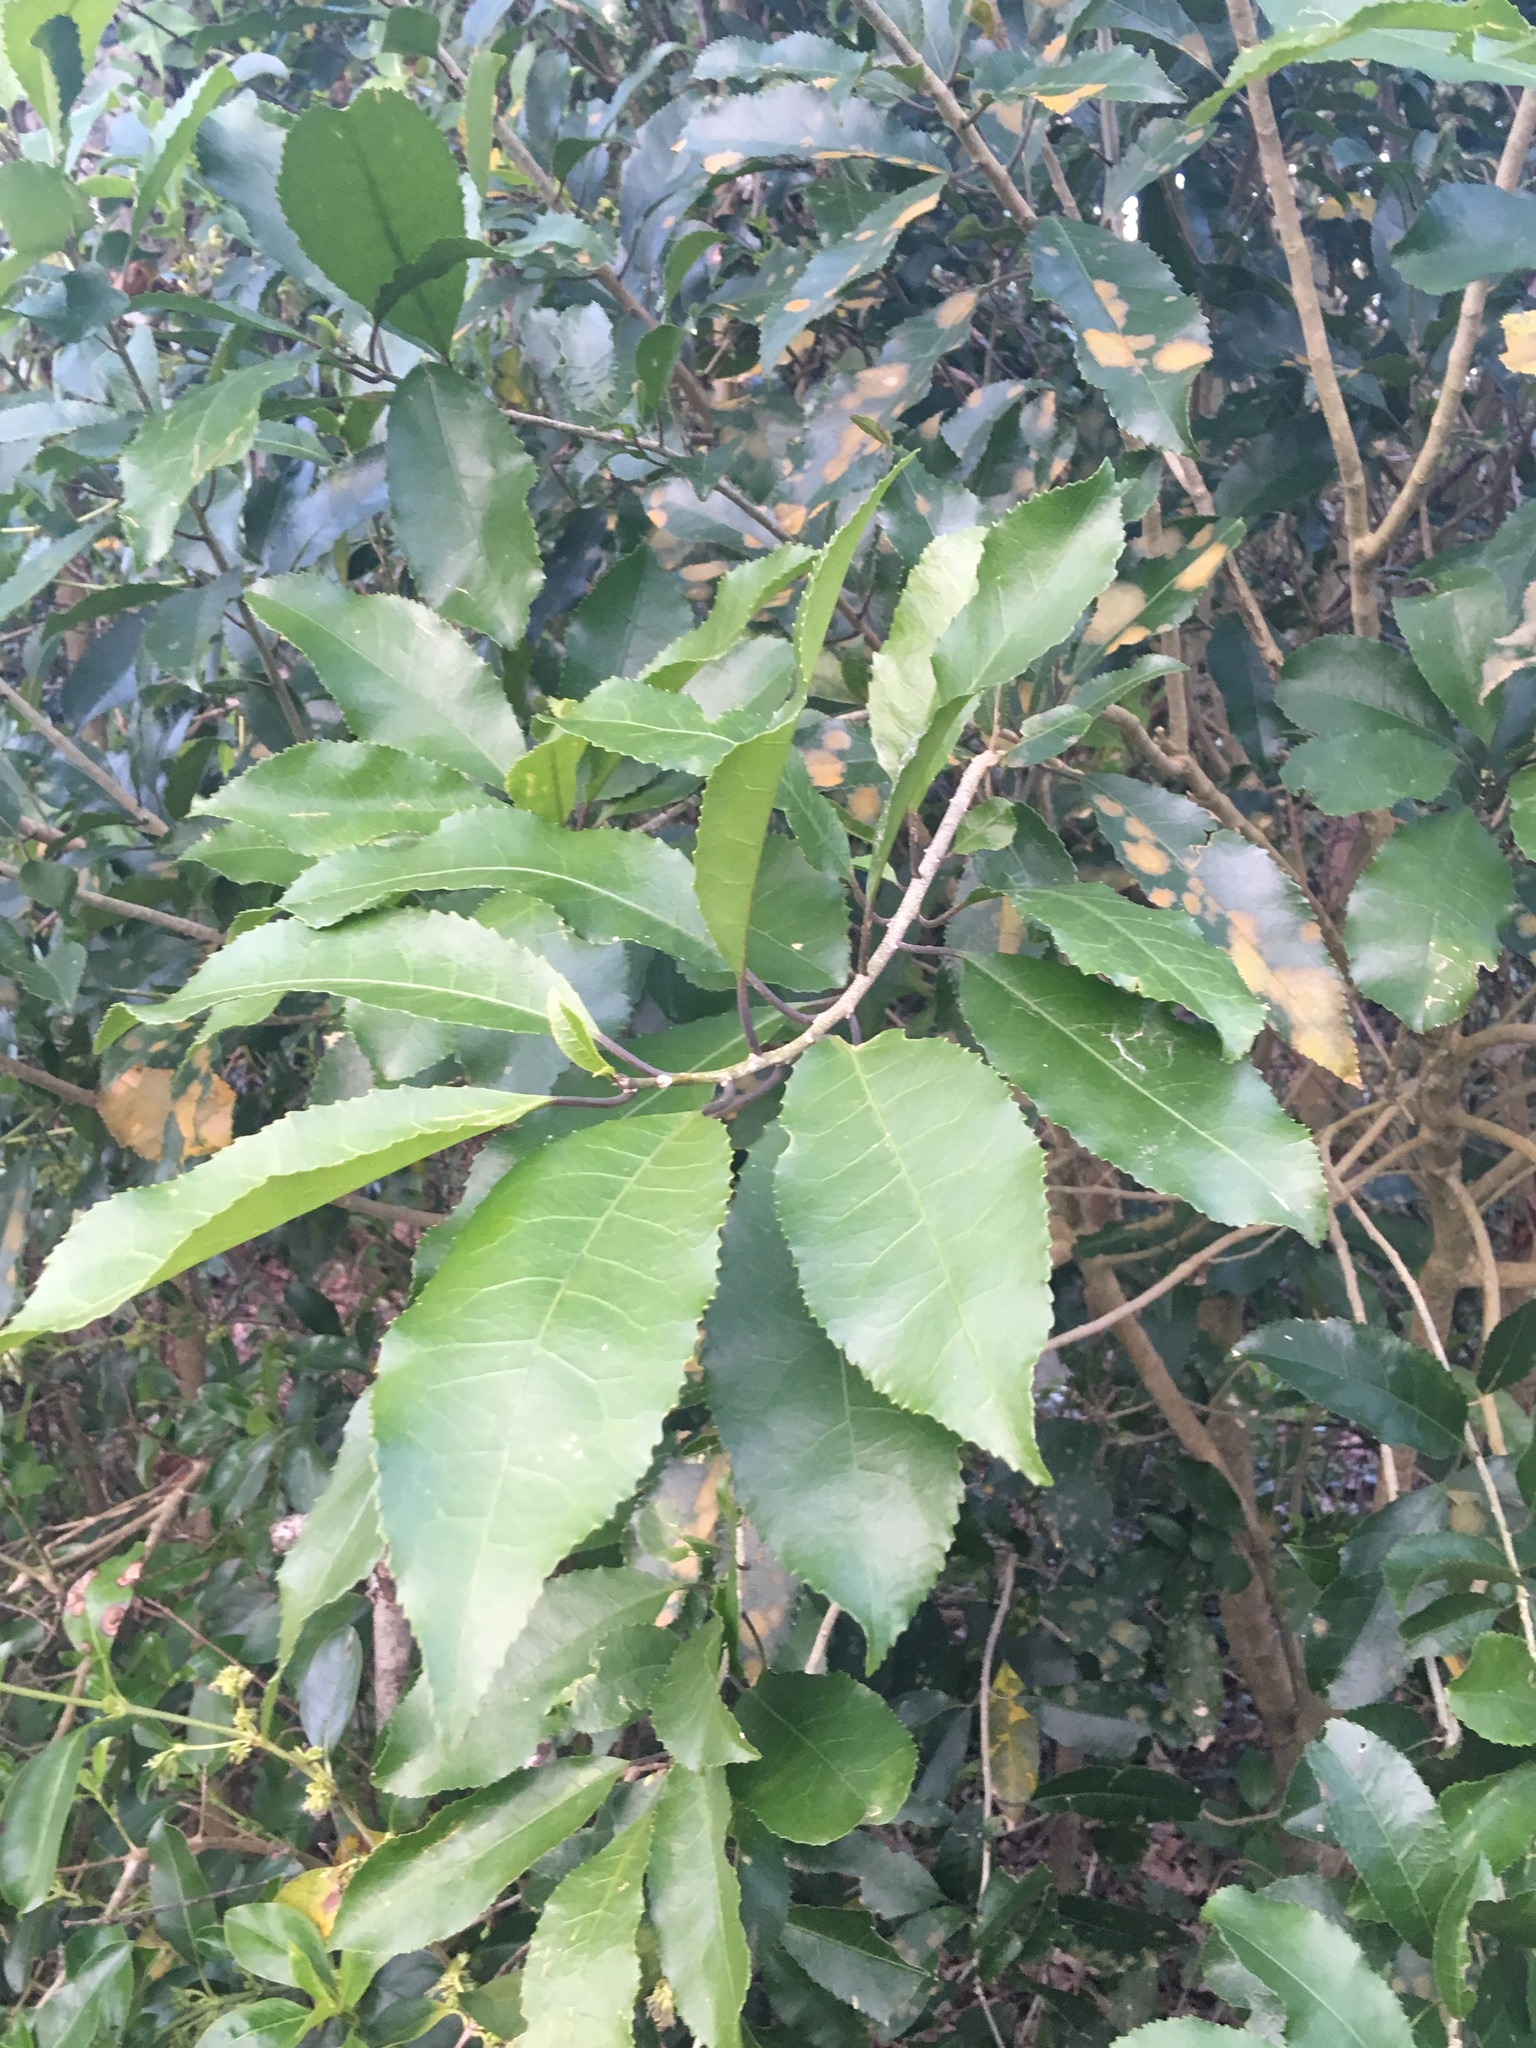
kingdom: Plantae
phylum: Tracheophyta
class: Magnoliopsida
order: Malpighiales
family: Violaceae
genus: Melicytus
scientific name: Melicytus ramiflorus
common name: Mahoe
